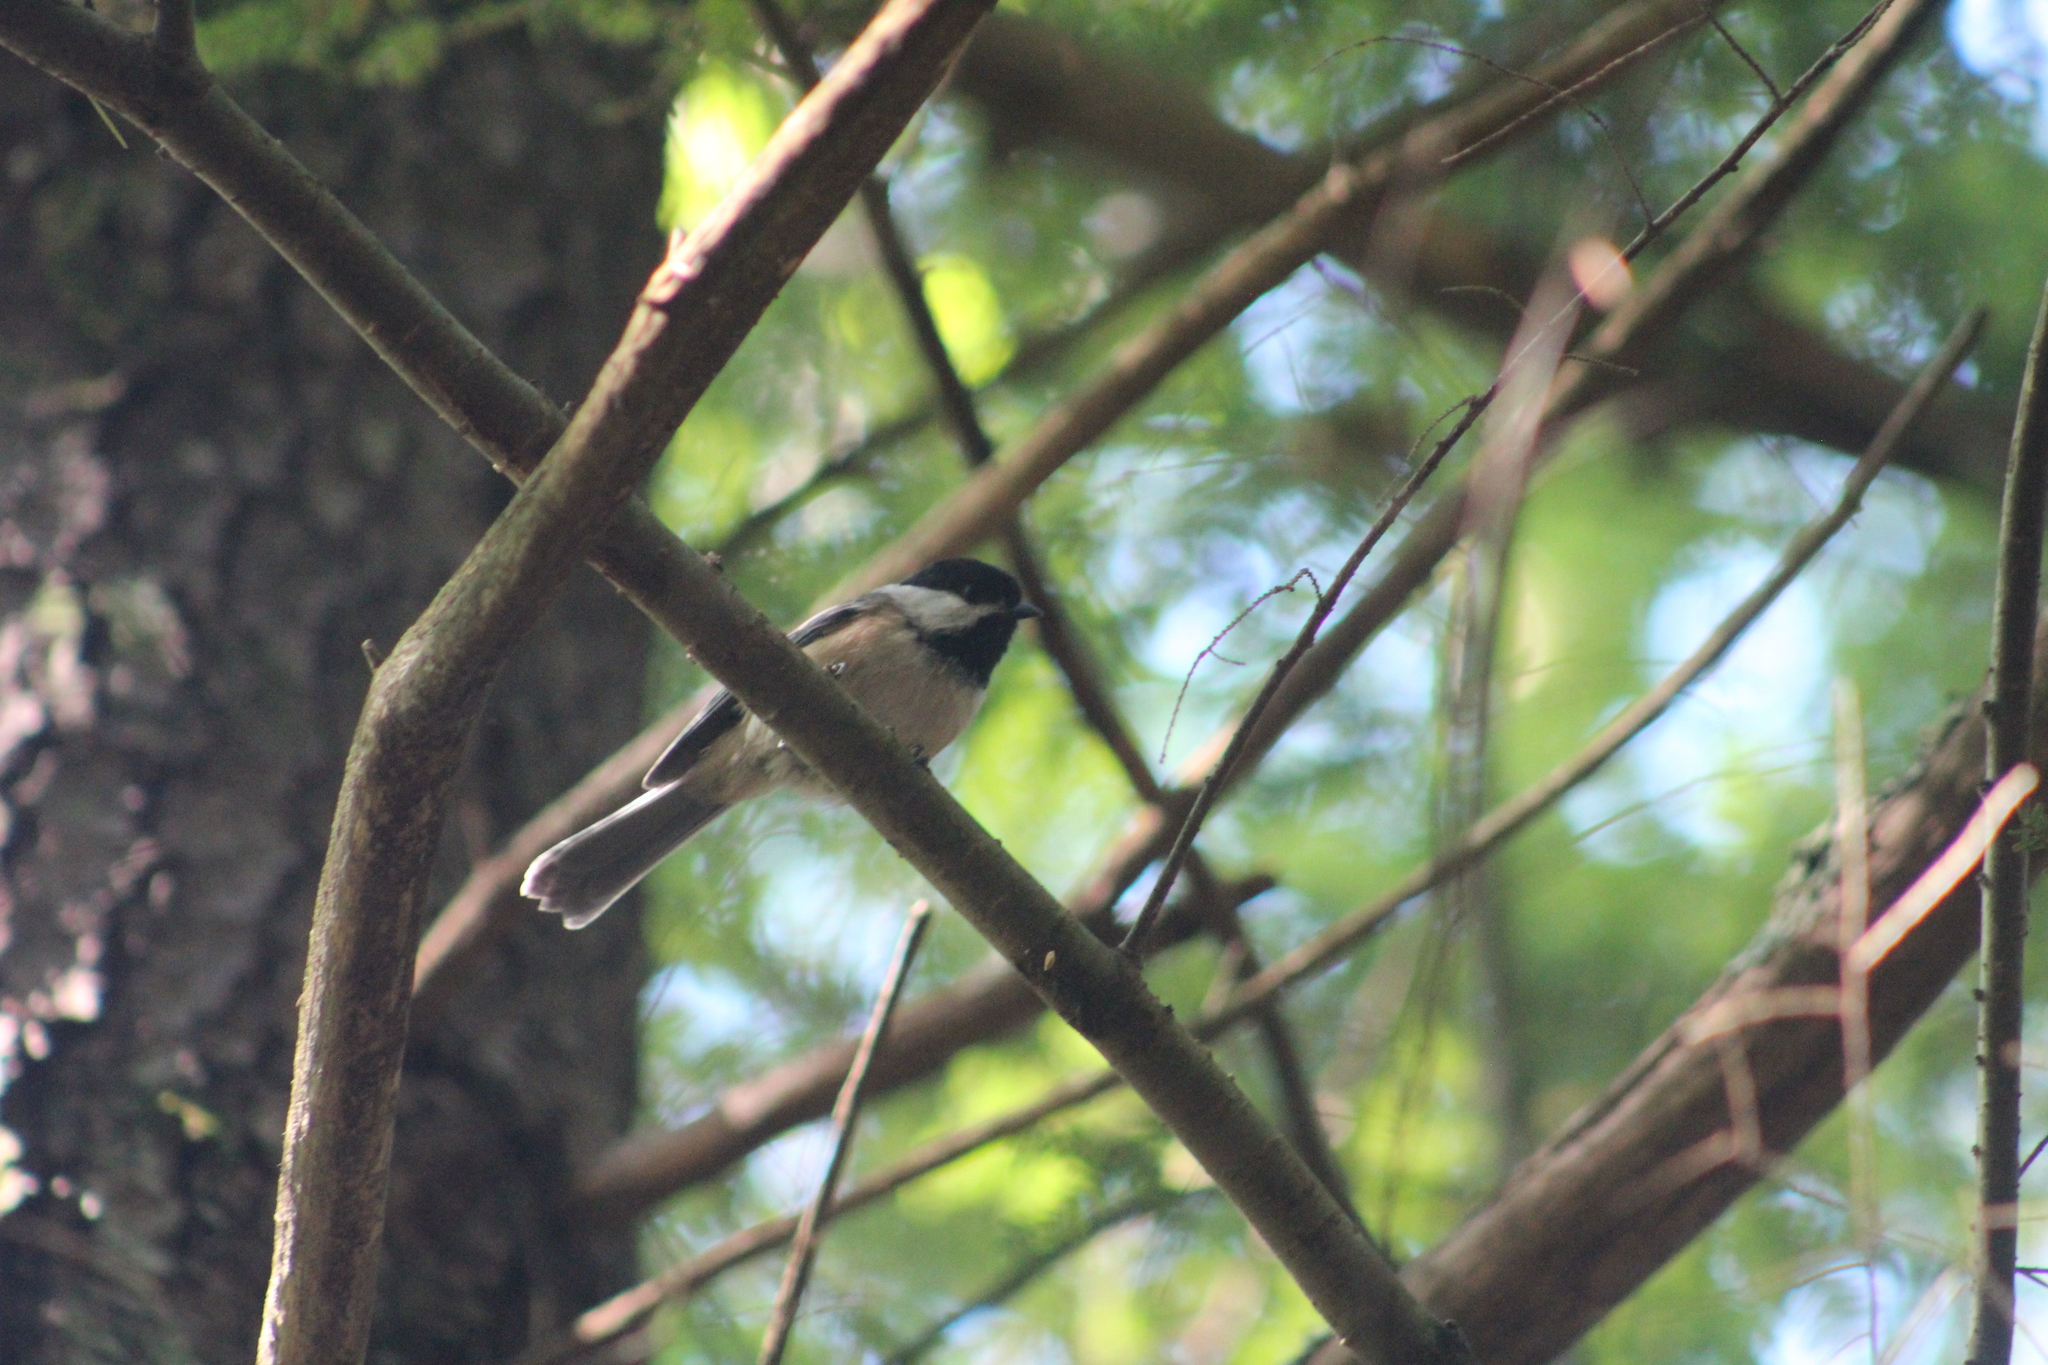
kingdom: Animalia
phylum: Chordata
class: Aves
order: Passeriformes
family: Paridae
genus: Poecile
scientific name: Poecile atricapillus
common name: Black-capped chickadee
